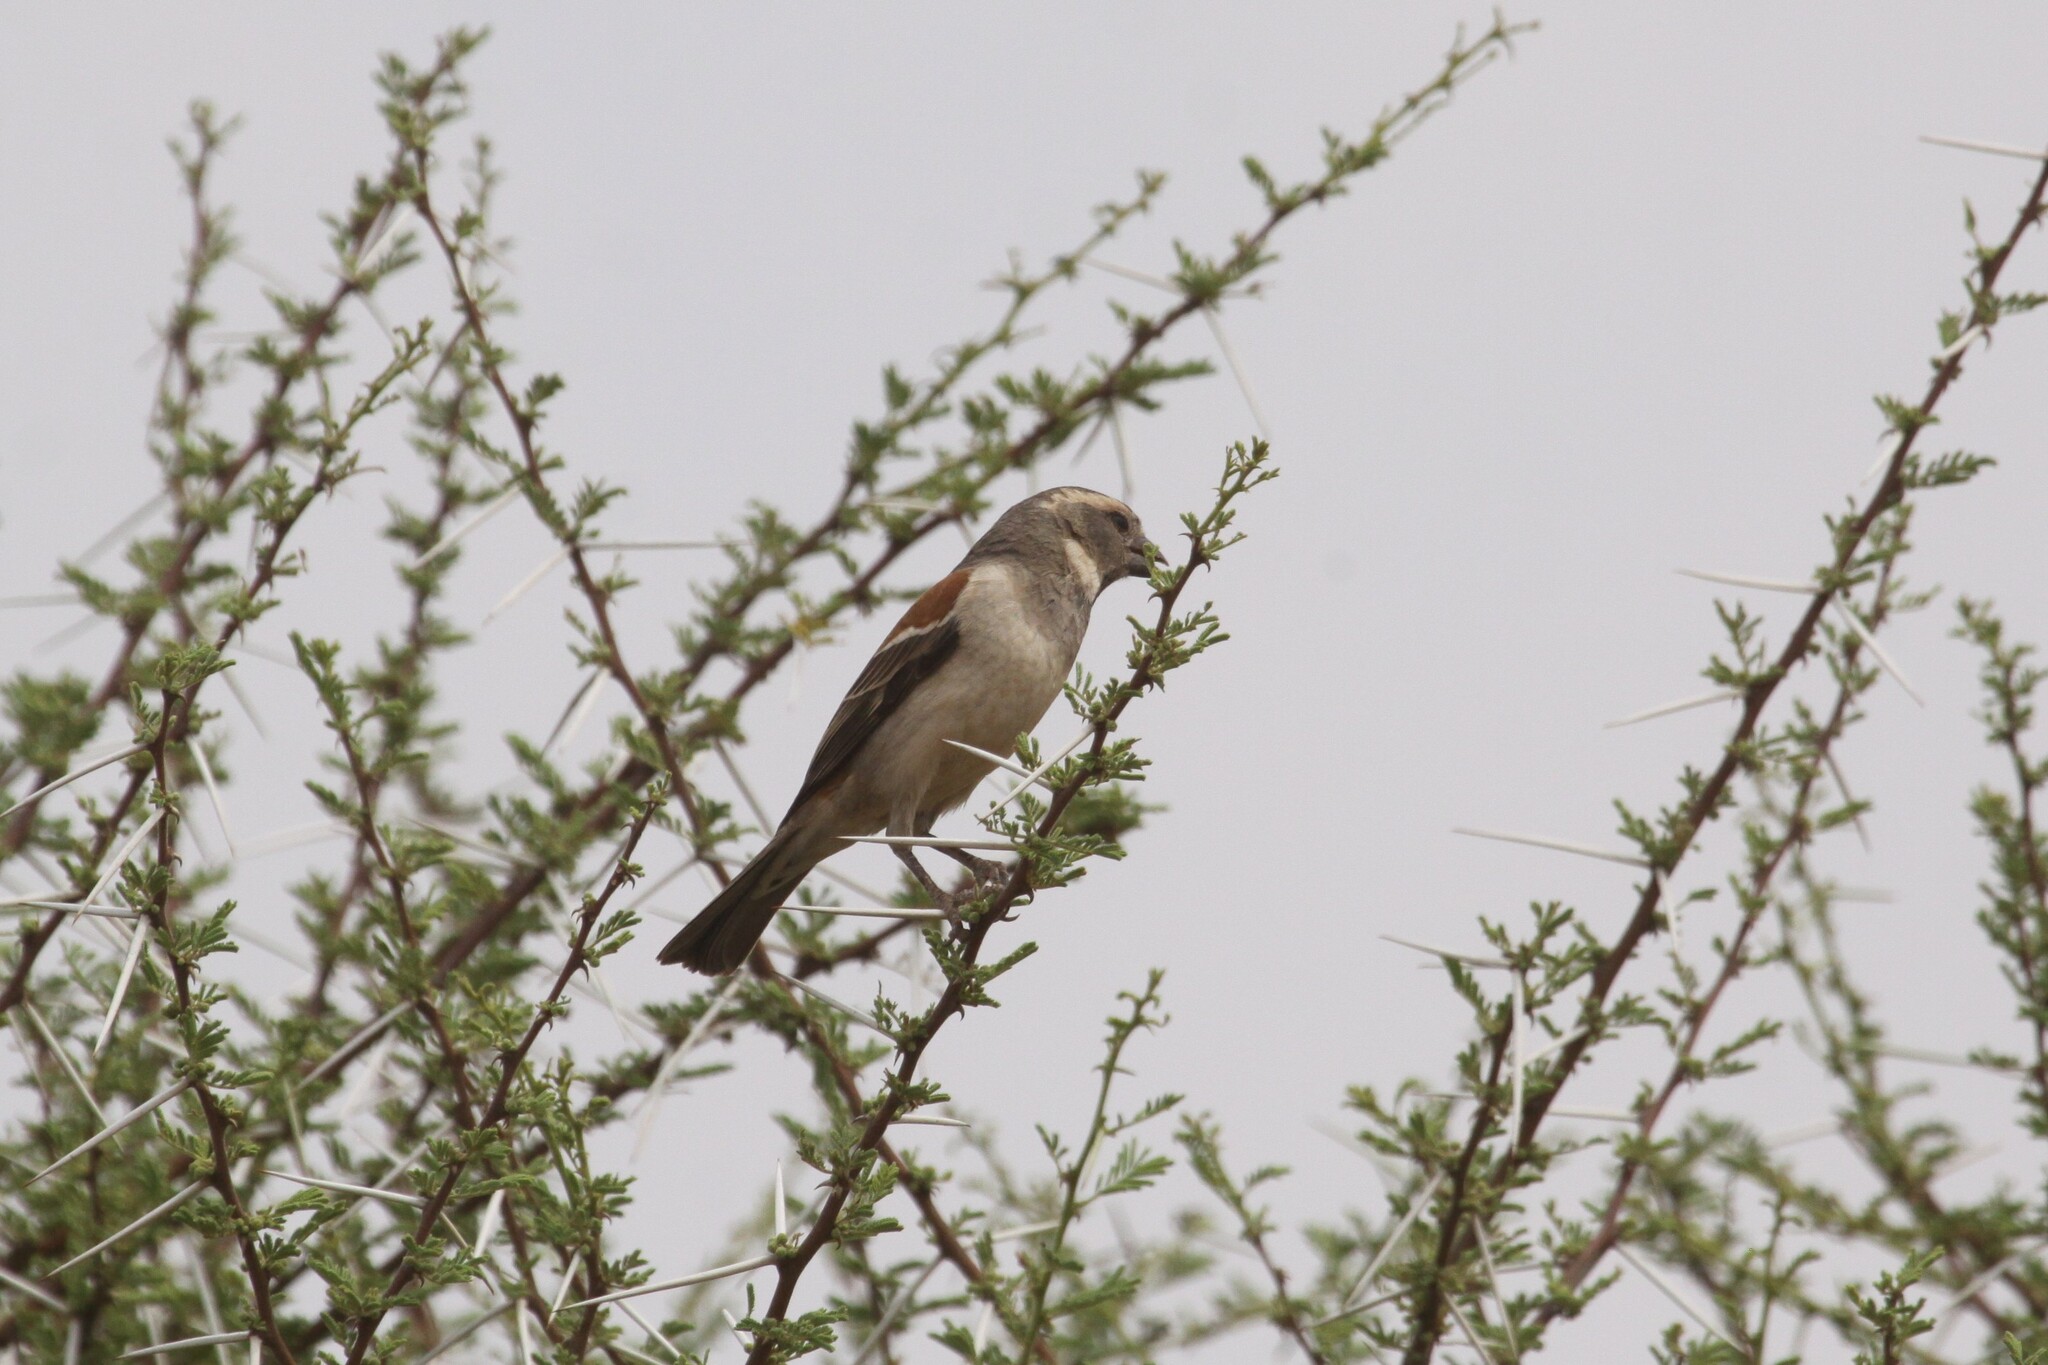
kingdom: Animalia
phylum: Chordata
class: Aves
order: Passeriformes
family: Passeridae
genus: Passer
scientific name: Passer melanurus
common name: Cape sparrow
